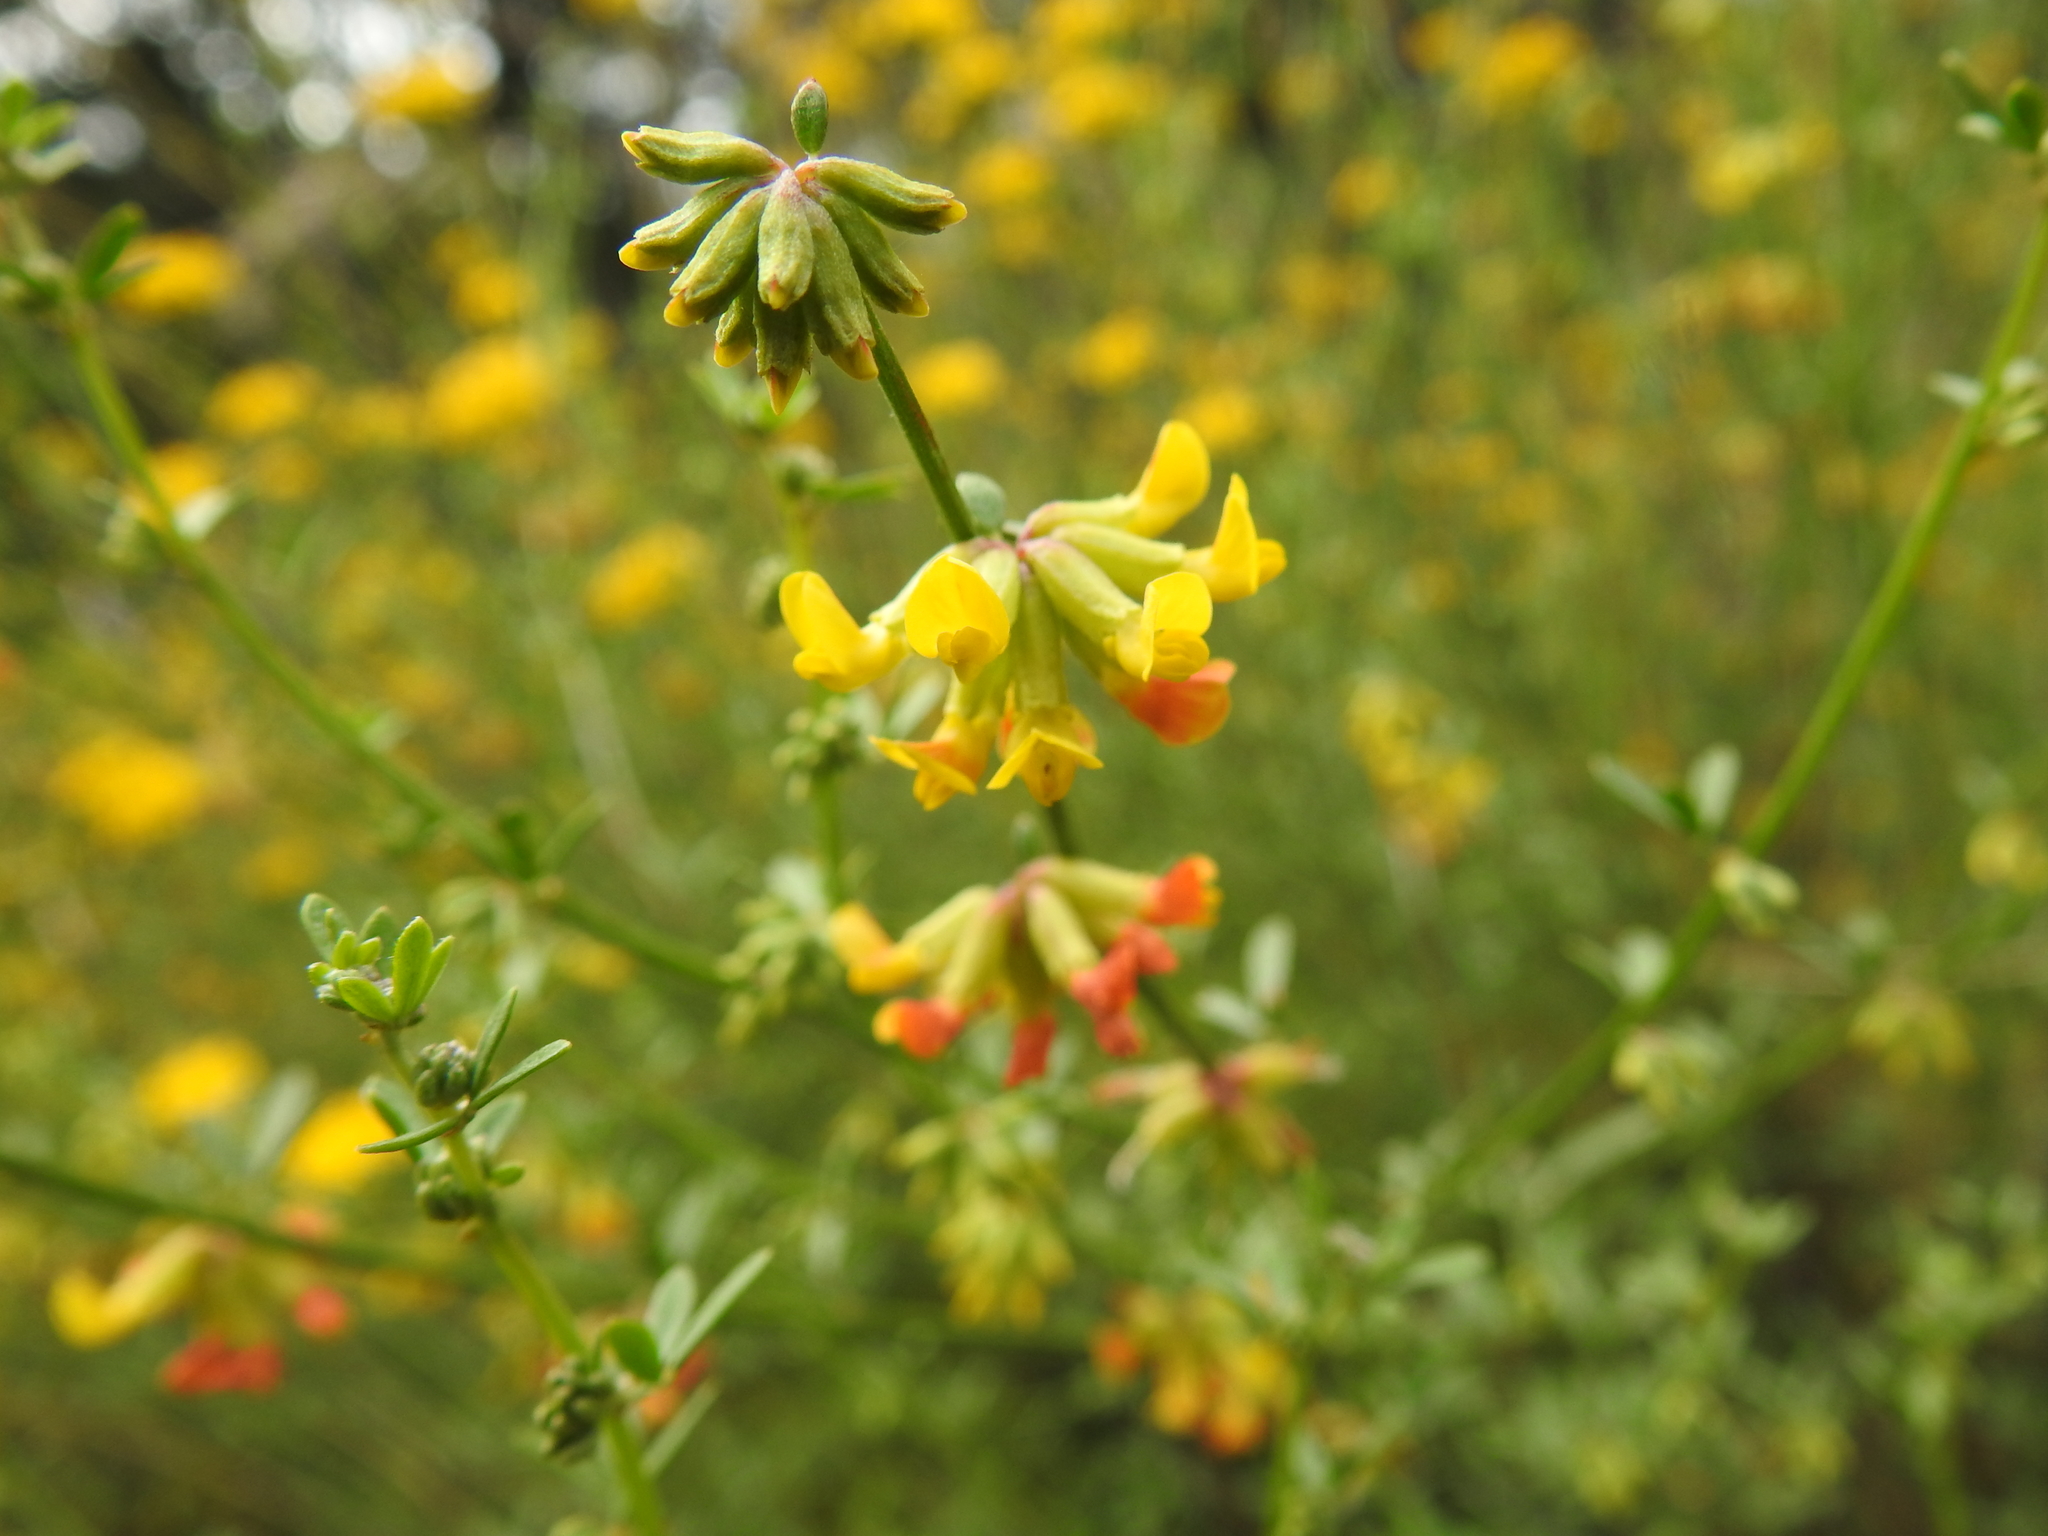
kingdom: Plantae
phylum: Tracheophyta
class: Magnoliopsida
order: Fabales
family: Fabaceae
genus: Acmispon
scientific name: Acmispon glaber
